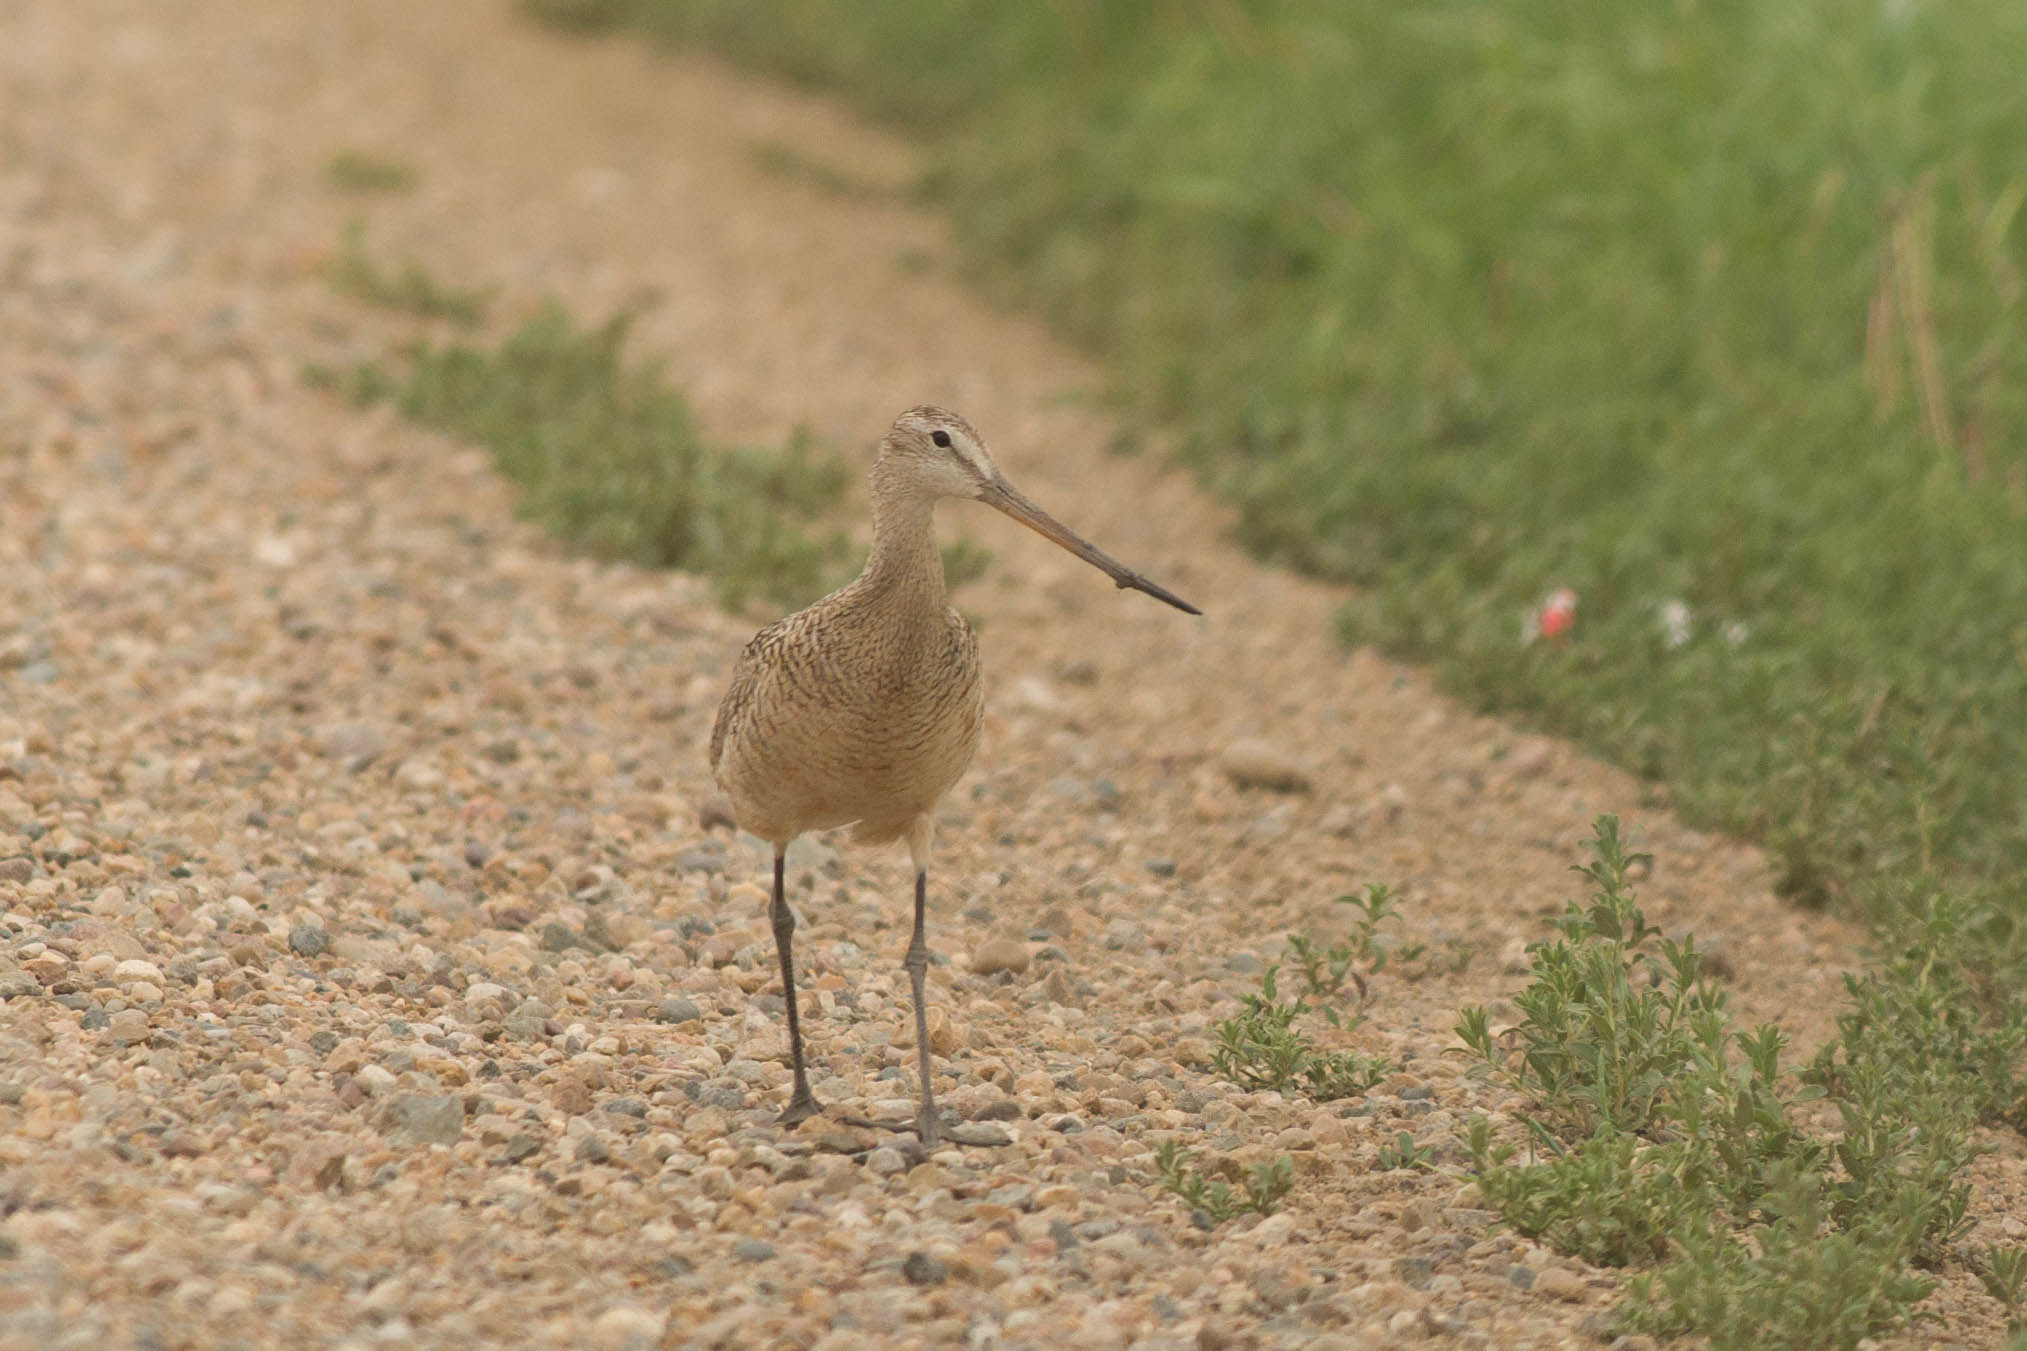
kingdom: Animalia
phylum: Chordata
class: Aves
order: Charadriiformes
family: Scolopacidae
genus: Limosa
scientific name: Limosa fedoa
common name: Marbled godwit
